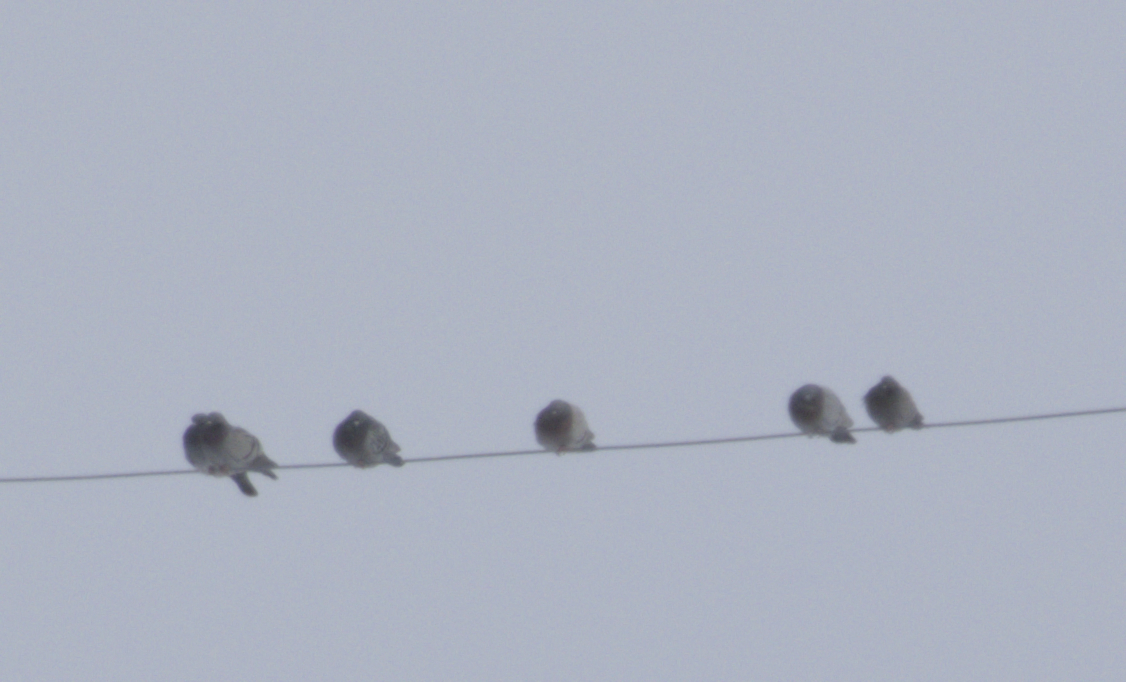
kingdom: Animalia
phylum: Chordata
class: Aves
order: Columbiformes
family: Columbidae
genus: Columba
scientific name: Columba livia
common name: Rock pigeon
